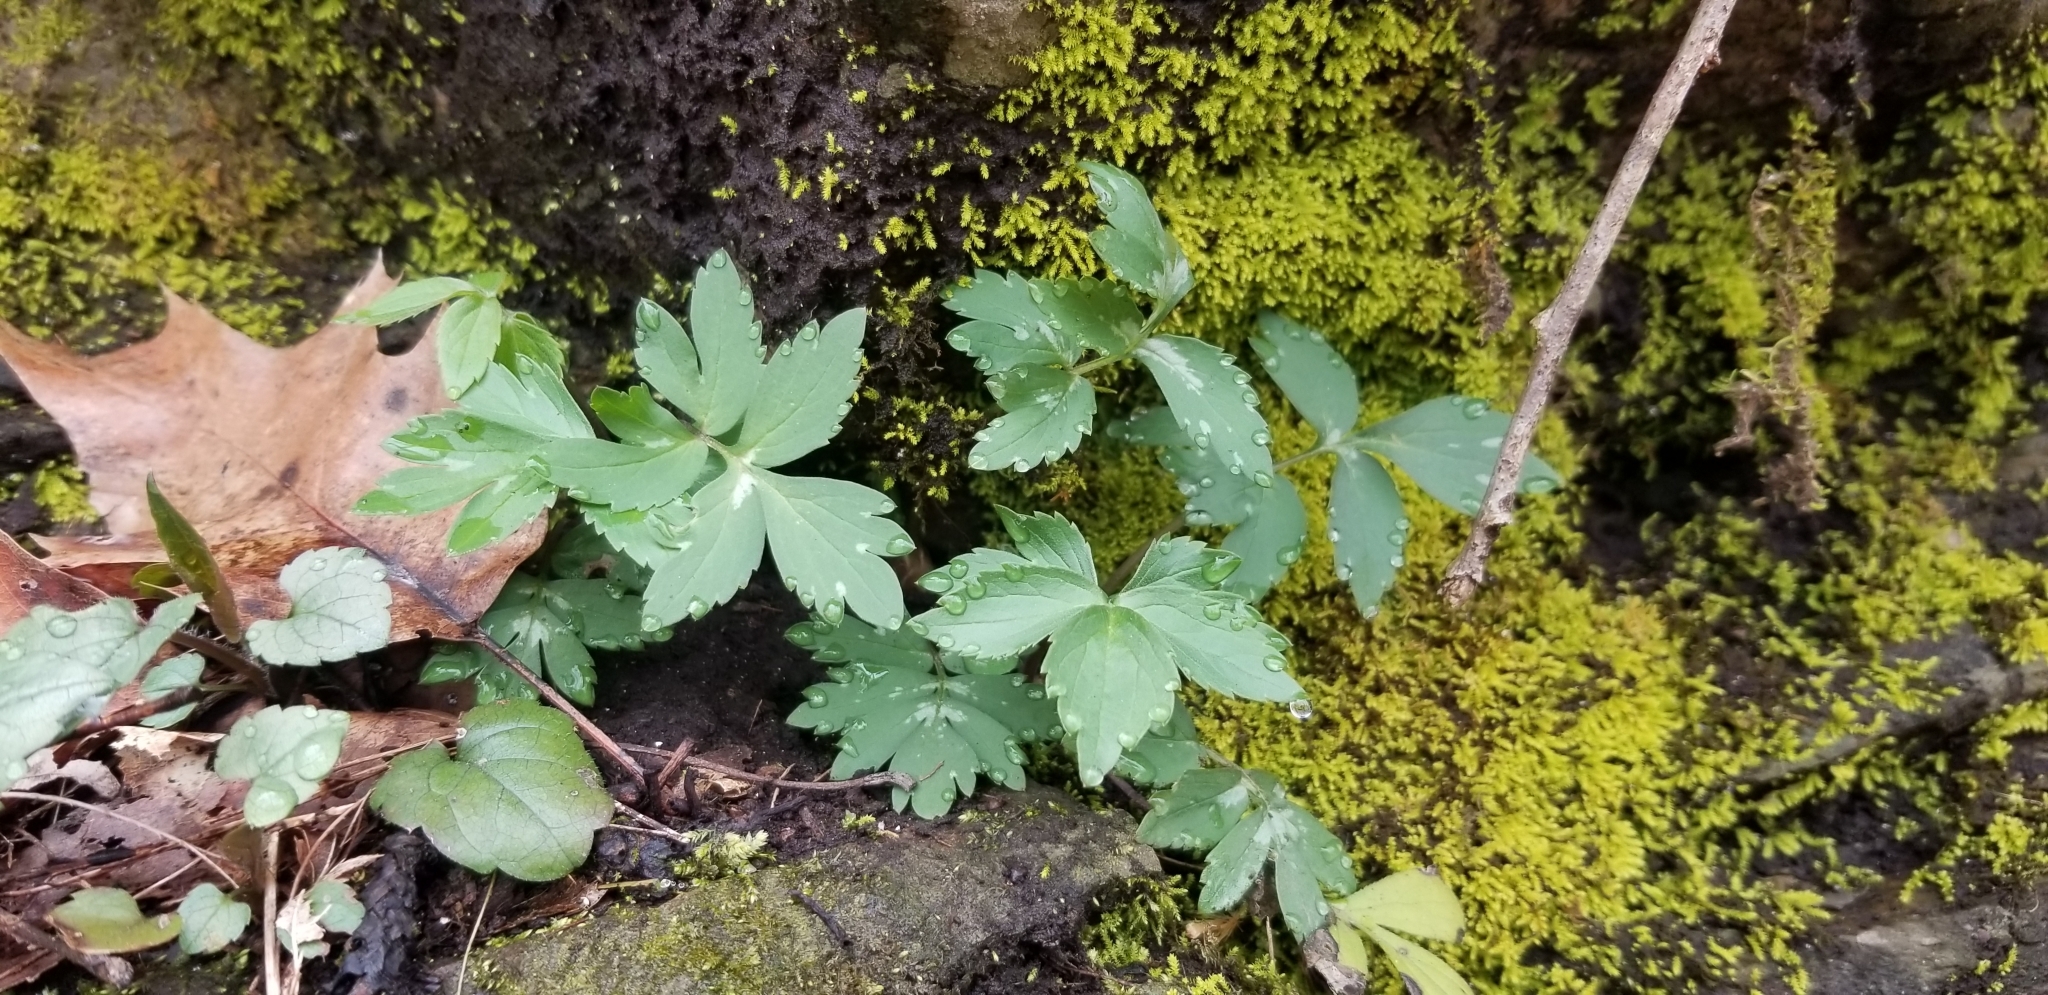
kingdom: Plantae
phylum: Tracheophyta
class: Magnoliopsida
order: Boraginales
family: Hydrophyllaceae
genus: Hydrophyllum
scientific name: Hydrophyllum virginianum
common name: Virginia waterleaf
